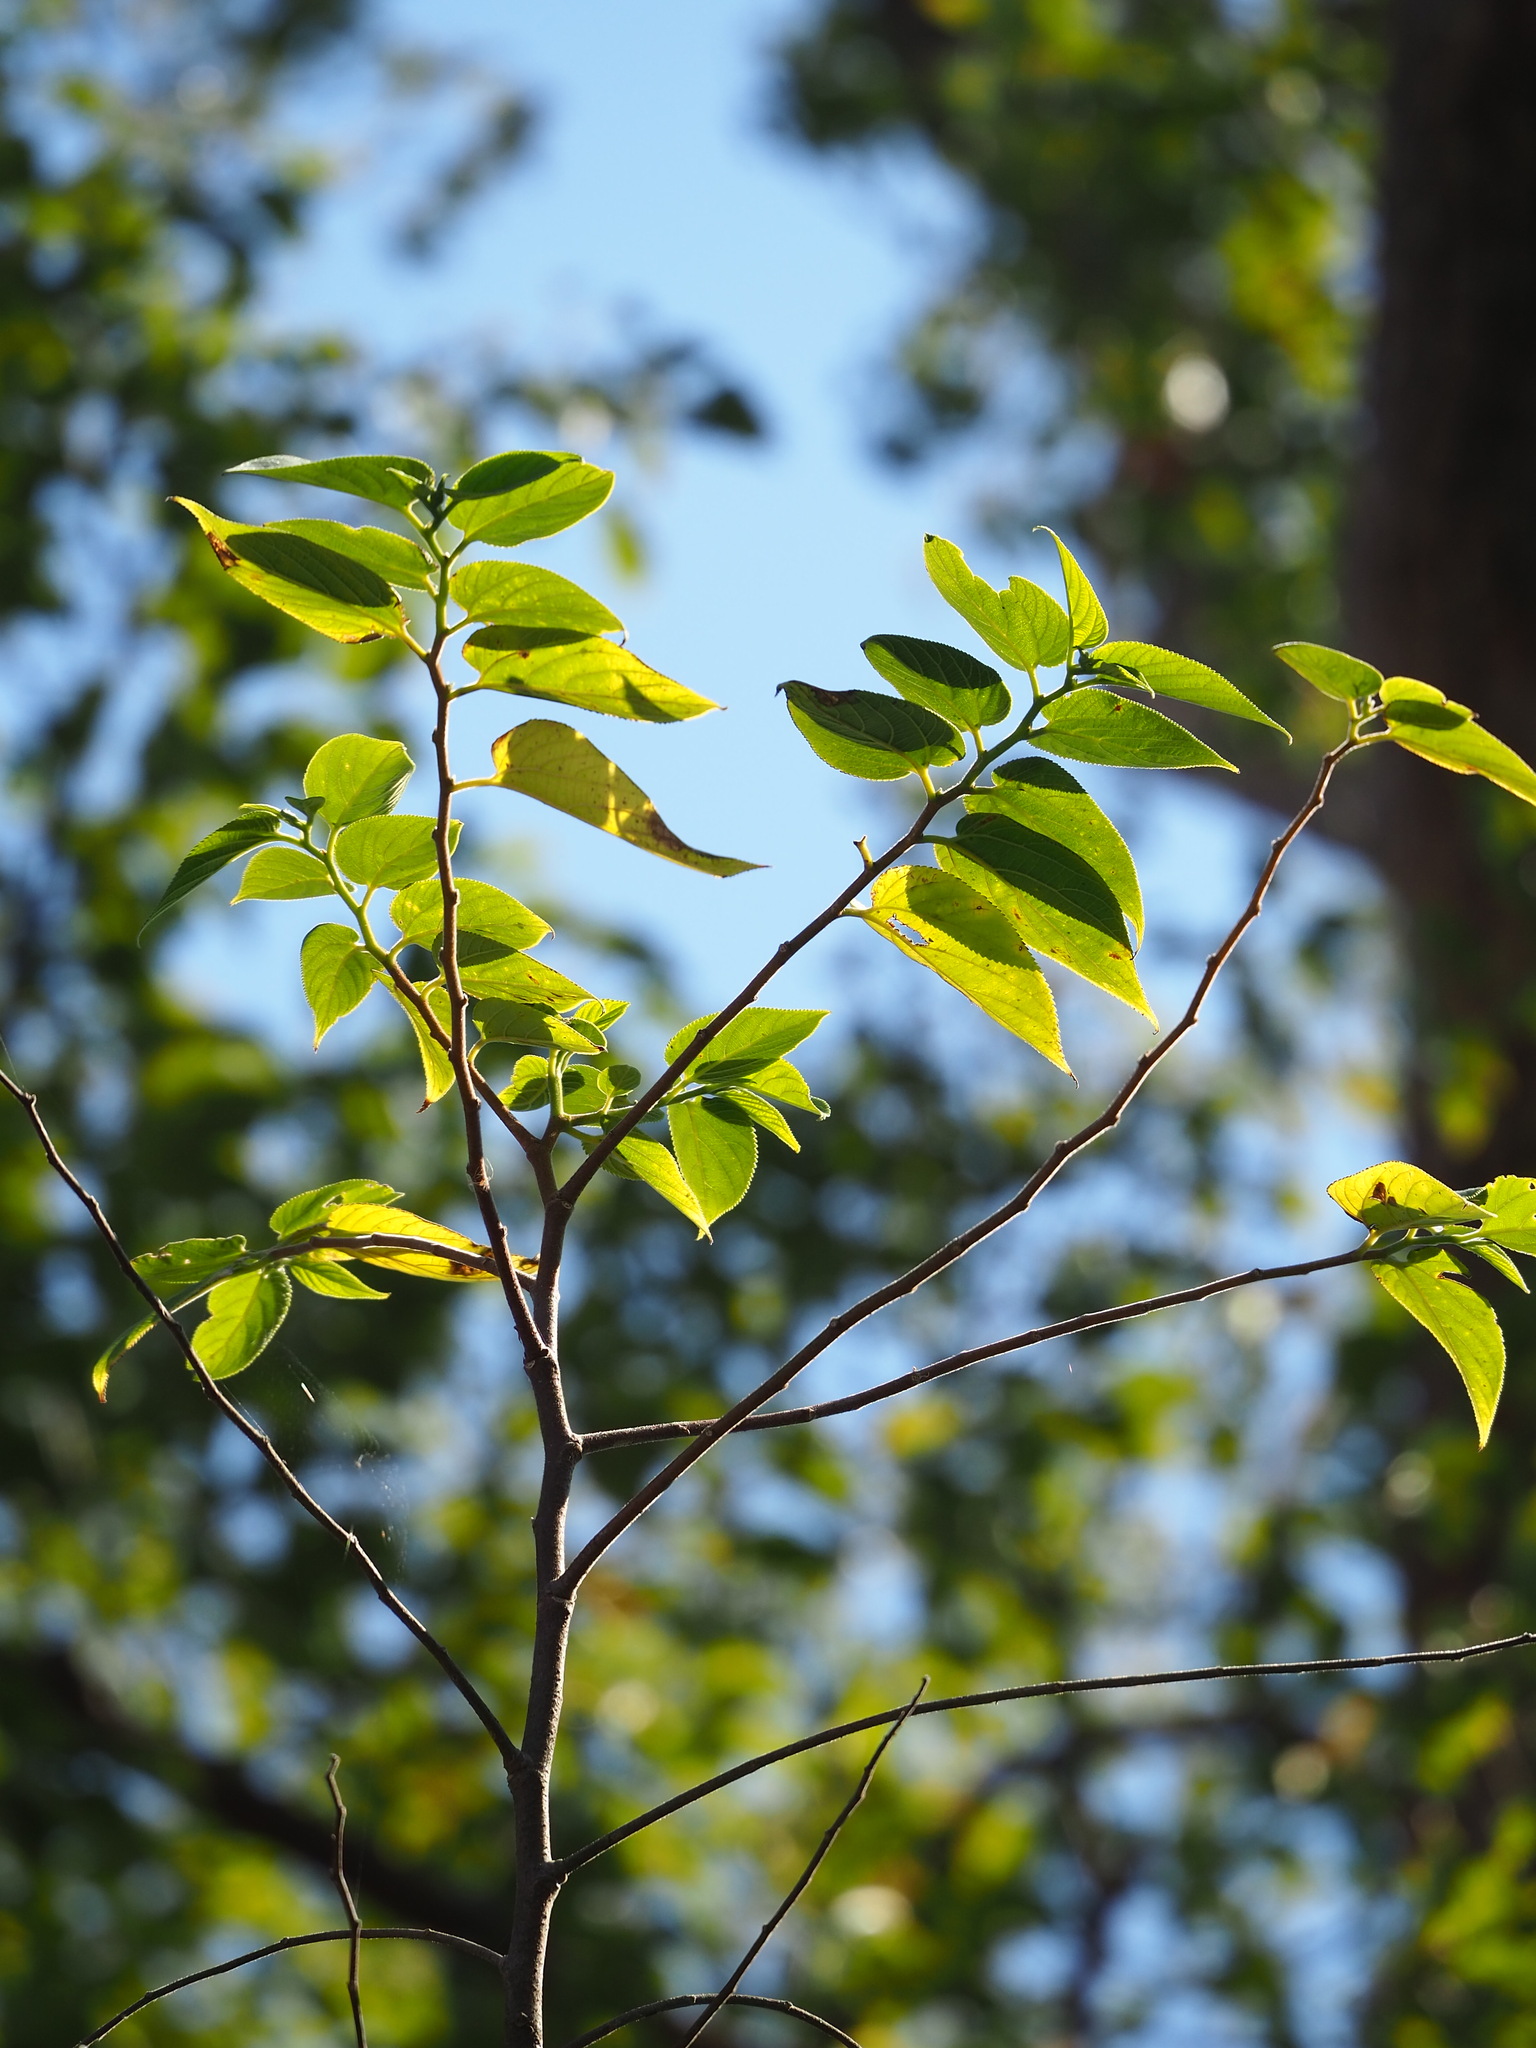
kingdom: Plantae
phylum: Tracheophyta
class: Magnoliopsida
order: Rosales
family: Cannabaceae
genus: Trema
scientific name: Trema orientale
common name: Indian charcoal tree
